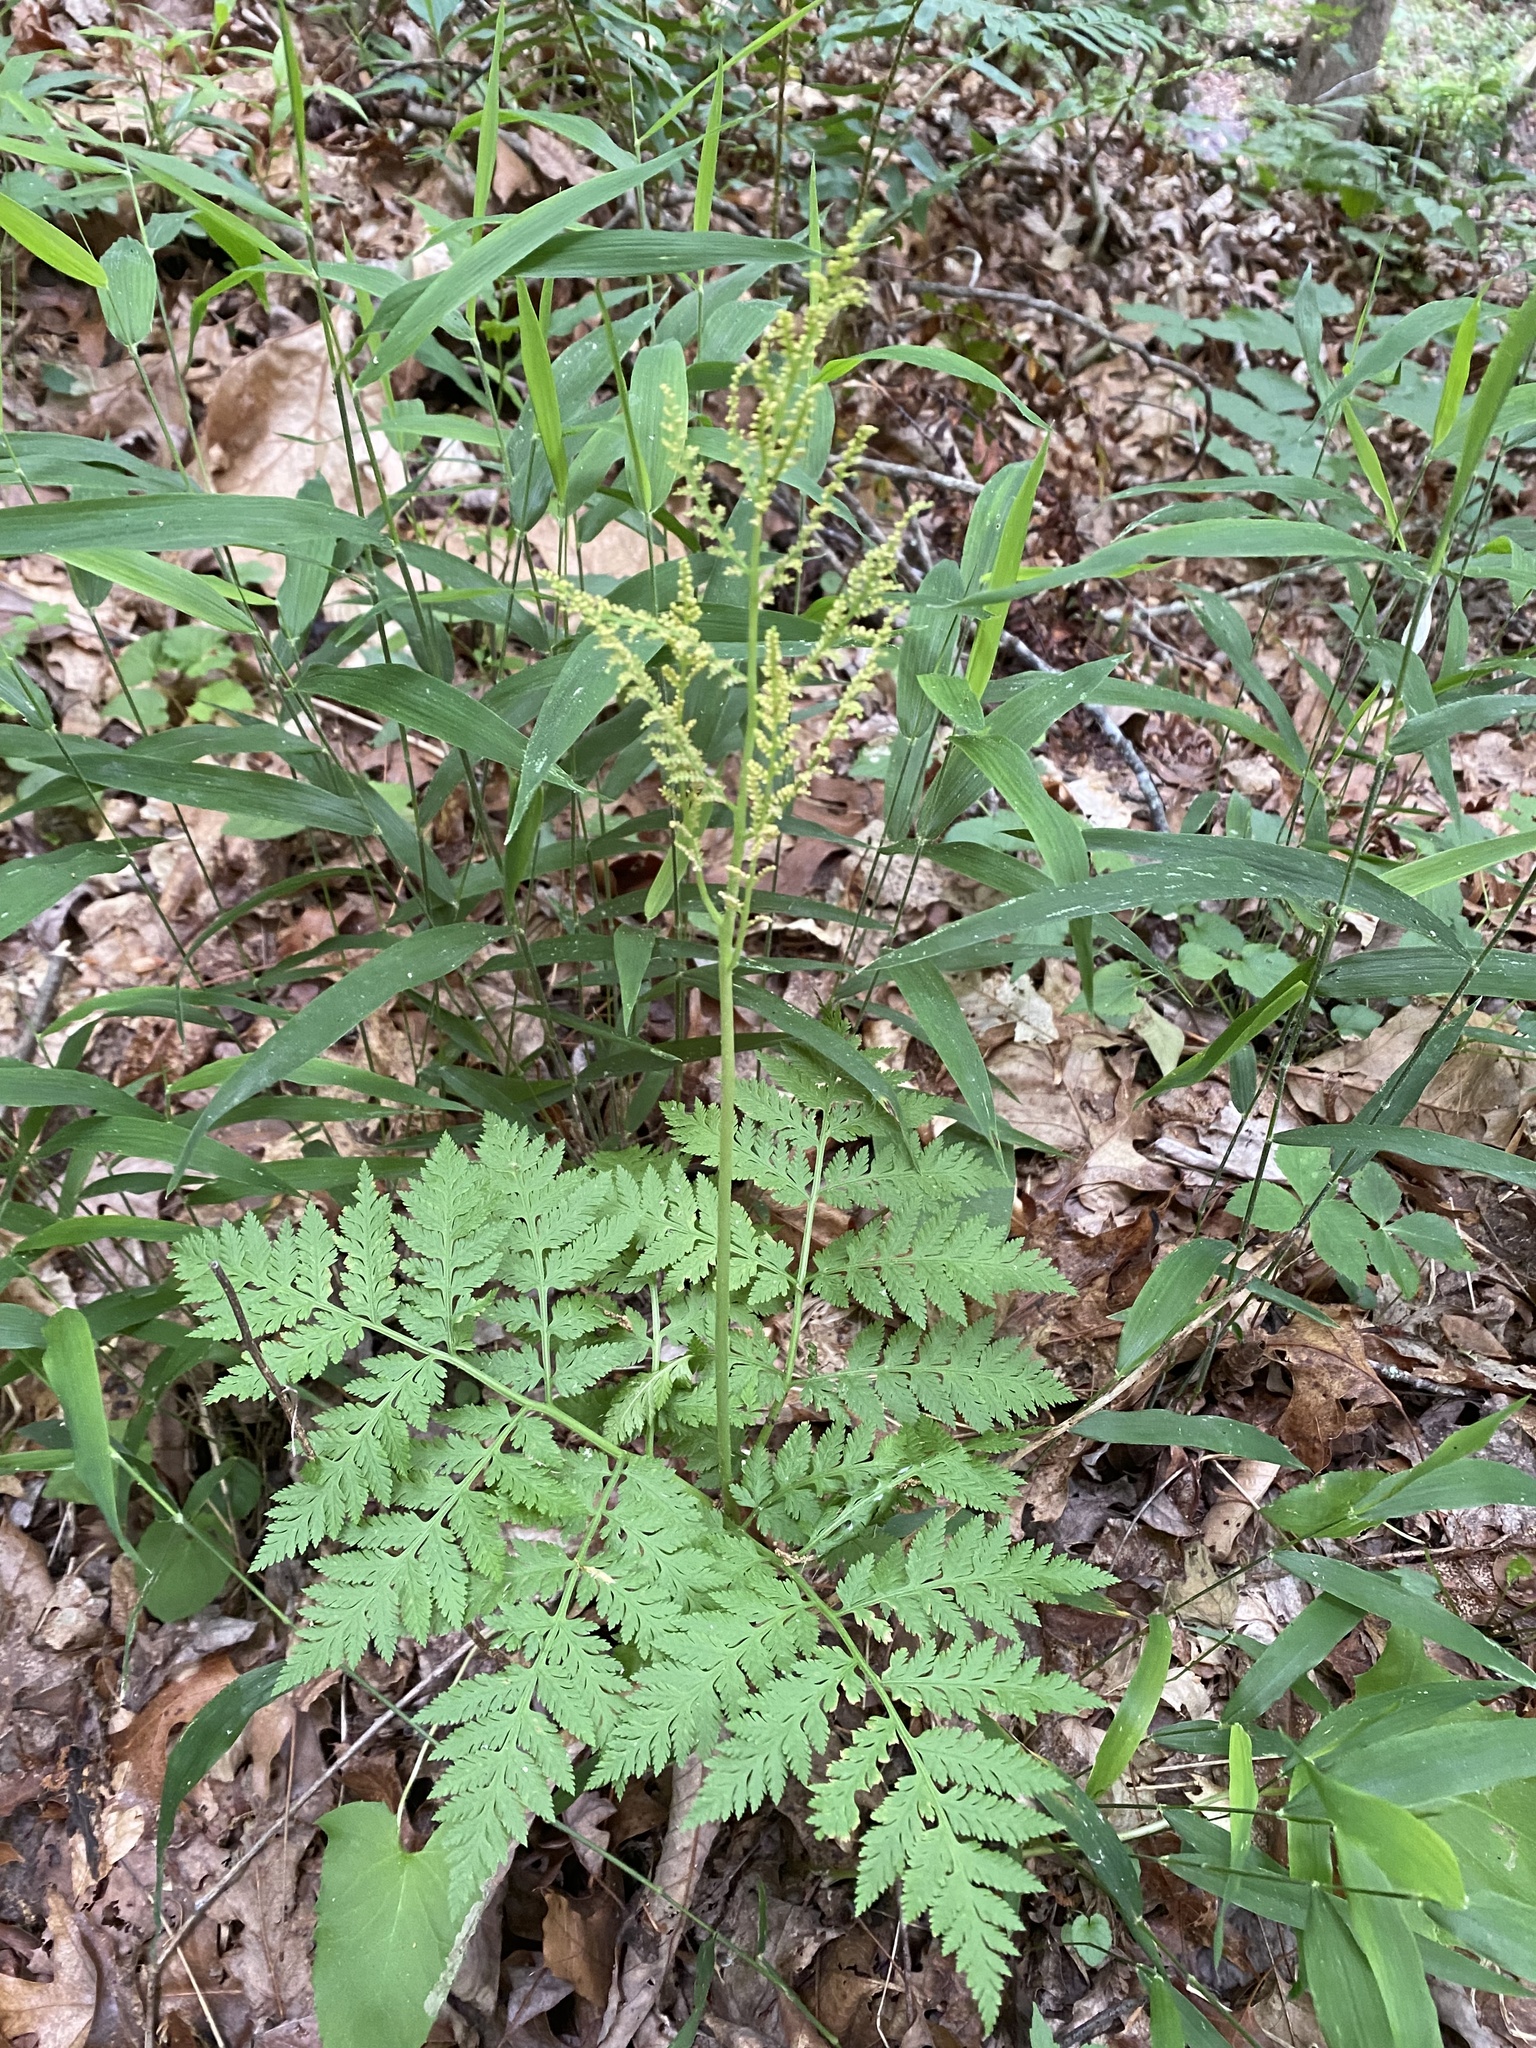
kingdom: Plantae
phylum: Tracheophyta
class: Polypodiopsida
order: Ophioglossales
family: Ophioglossaceae
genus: Botrypus
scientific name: Botrypus virginianus
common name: Common grapefern
